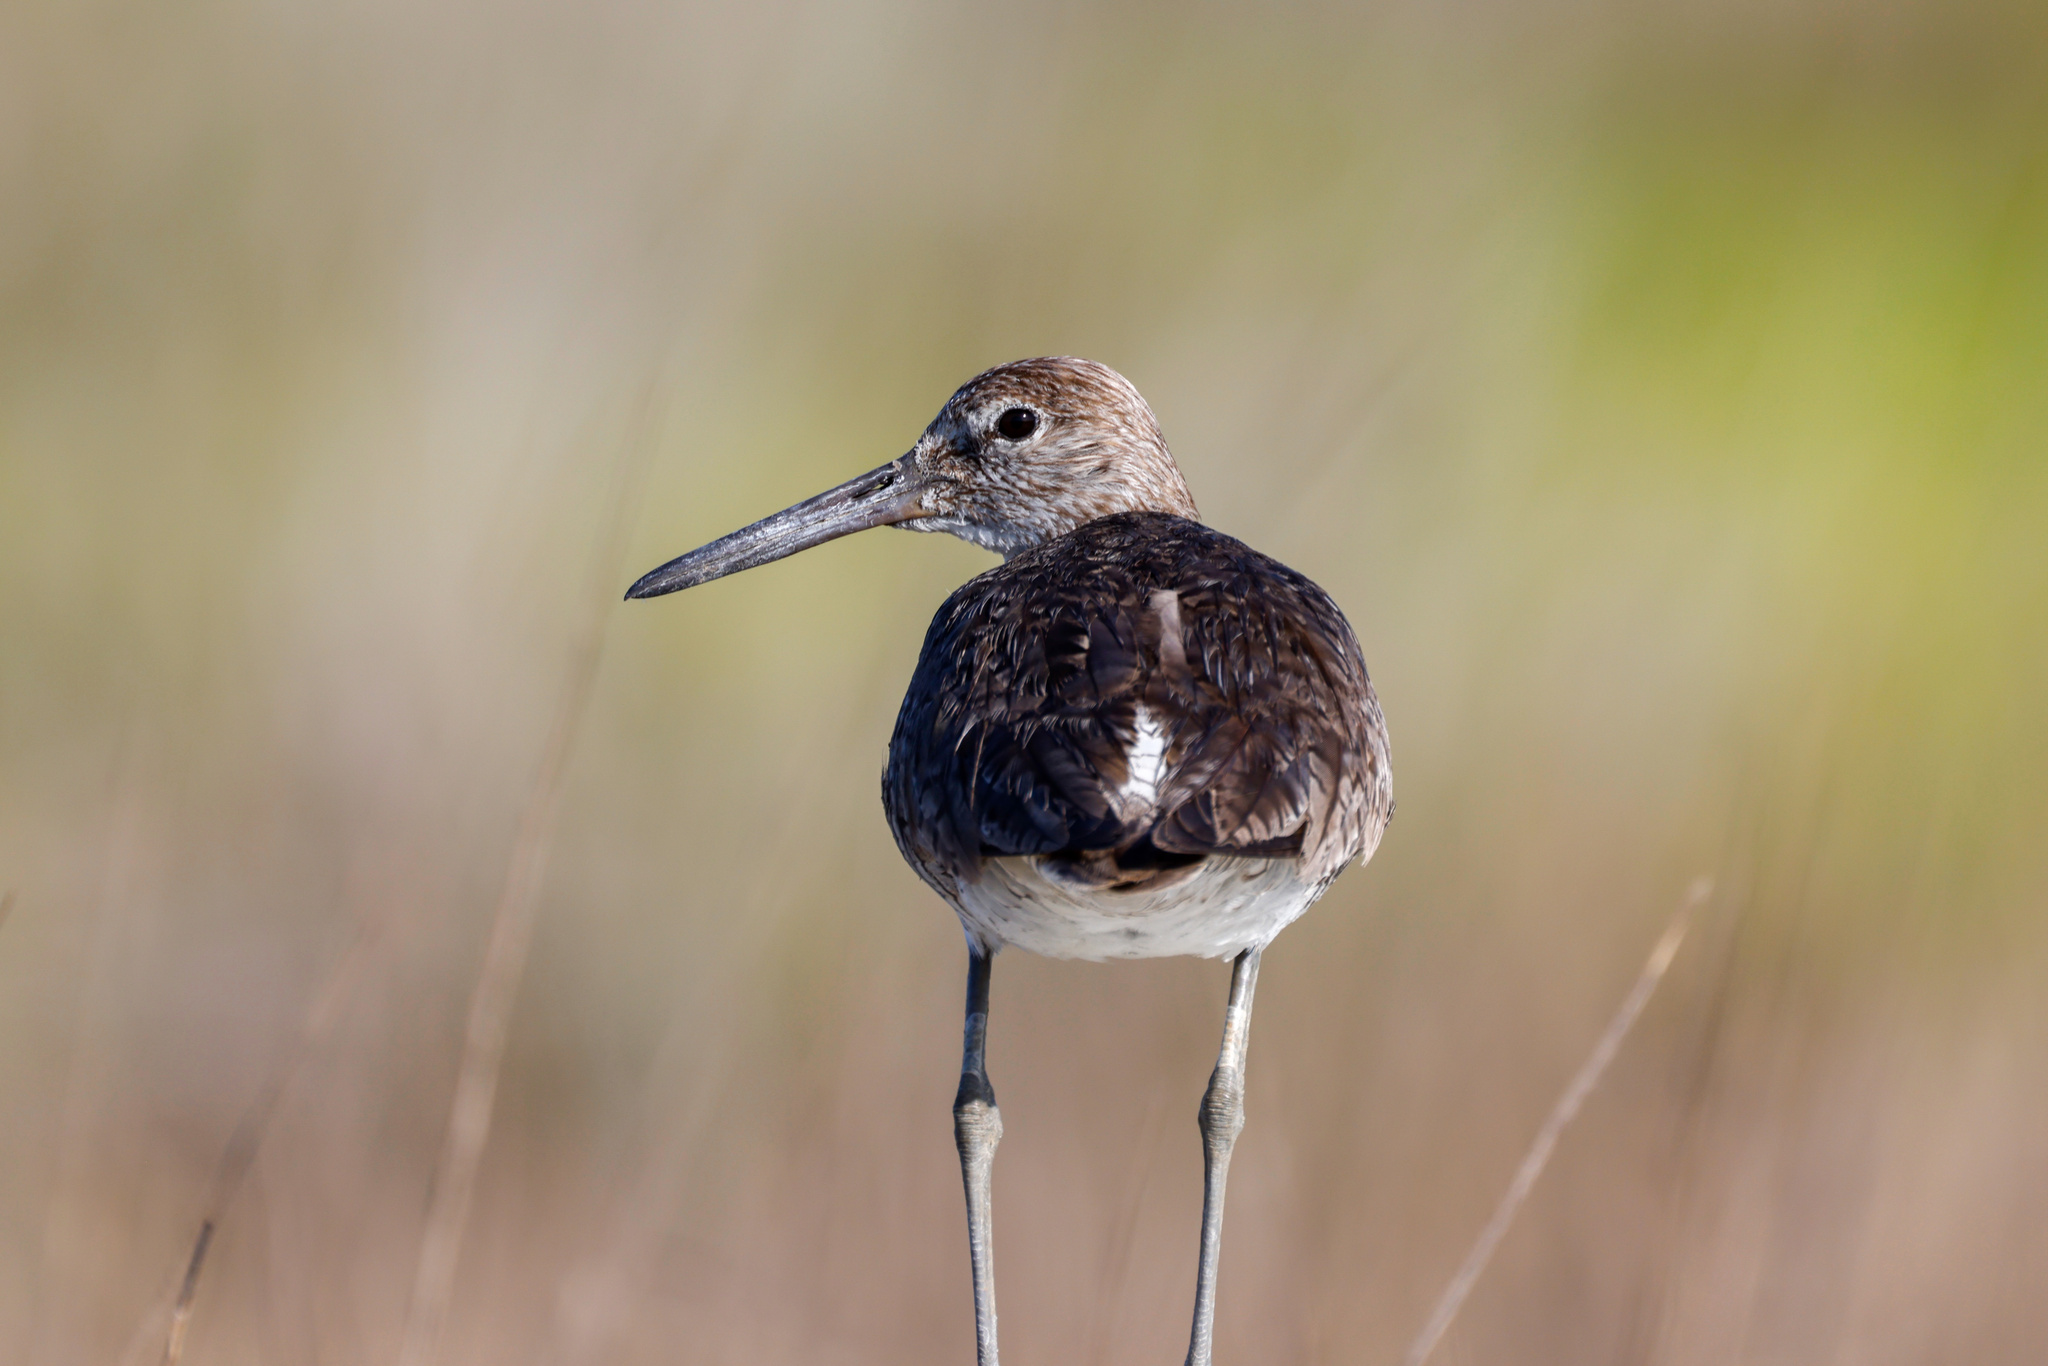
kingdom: Animalia
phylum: Chordata
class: Aves
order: Charadriiformes
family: Scolopacidae
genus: Tringa
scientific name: Tringa semipalmata
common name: Willet
